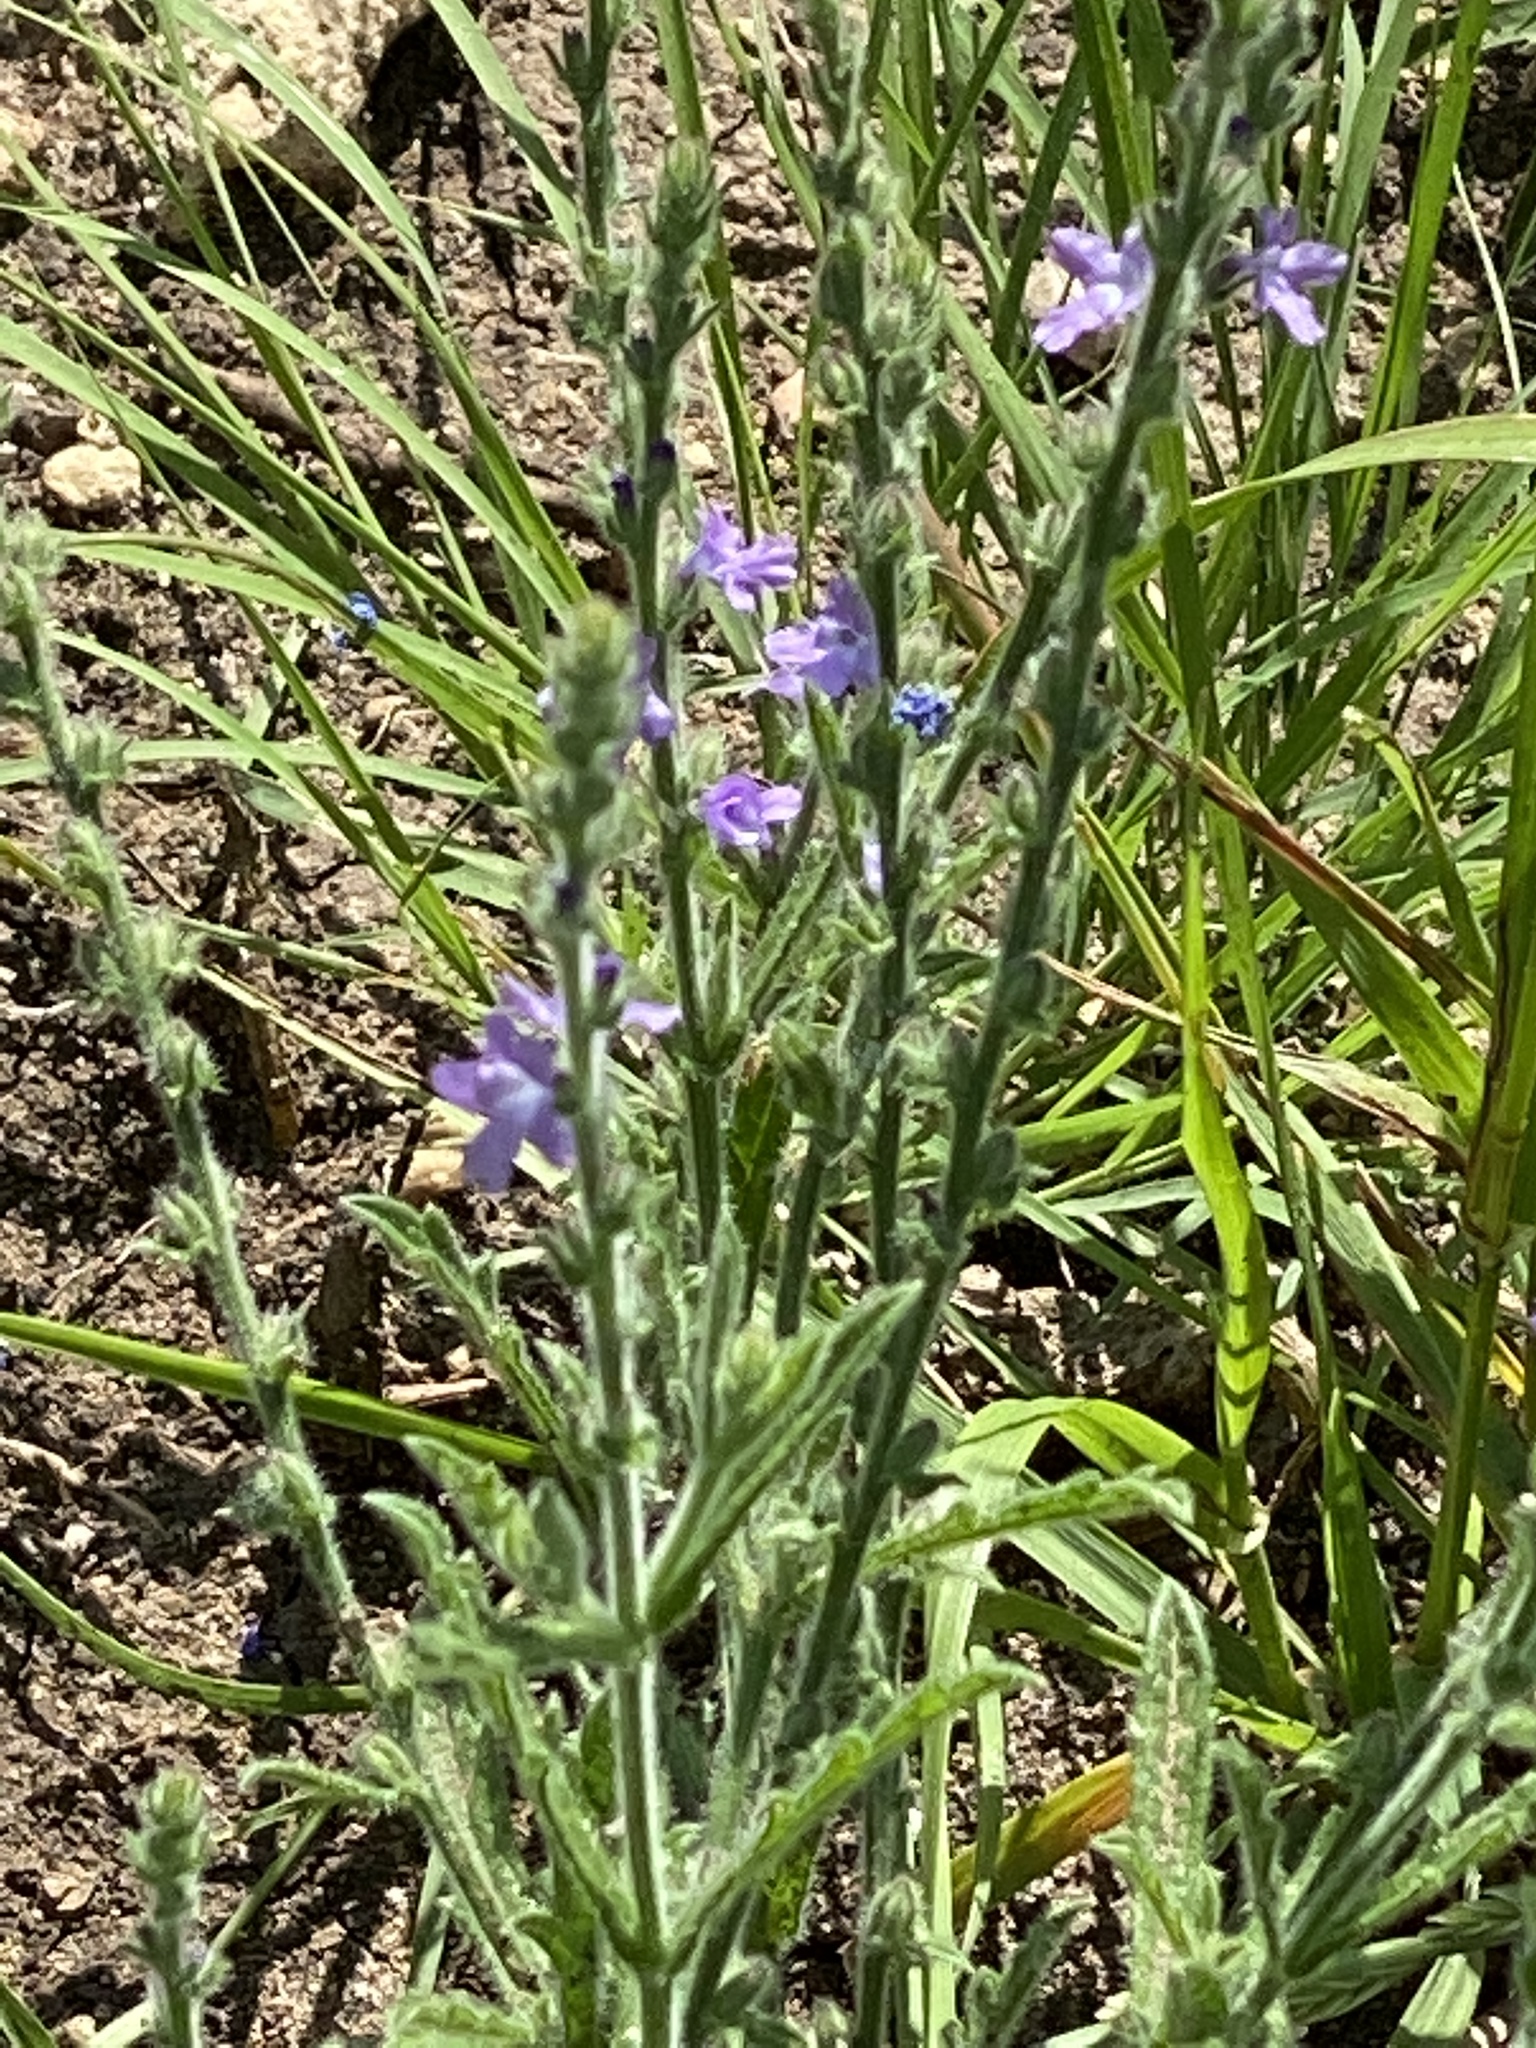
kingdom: Plantae
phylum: Tracheophyta
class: Magnoliopsida
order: Lamiales
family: Verbenaceae
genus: Verbena
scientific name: Verbena canescens
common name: Gray vervain
